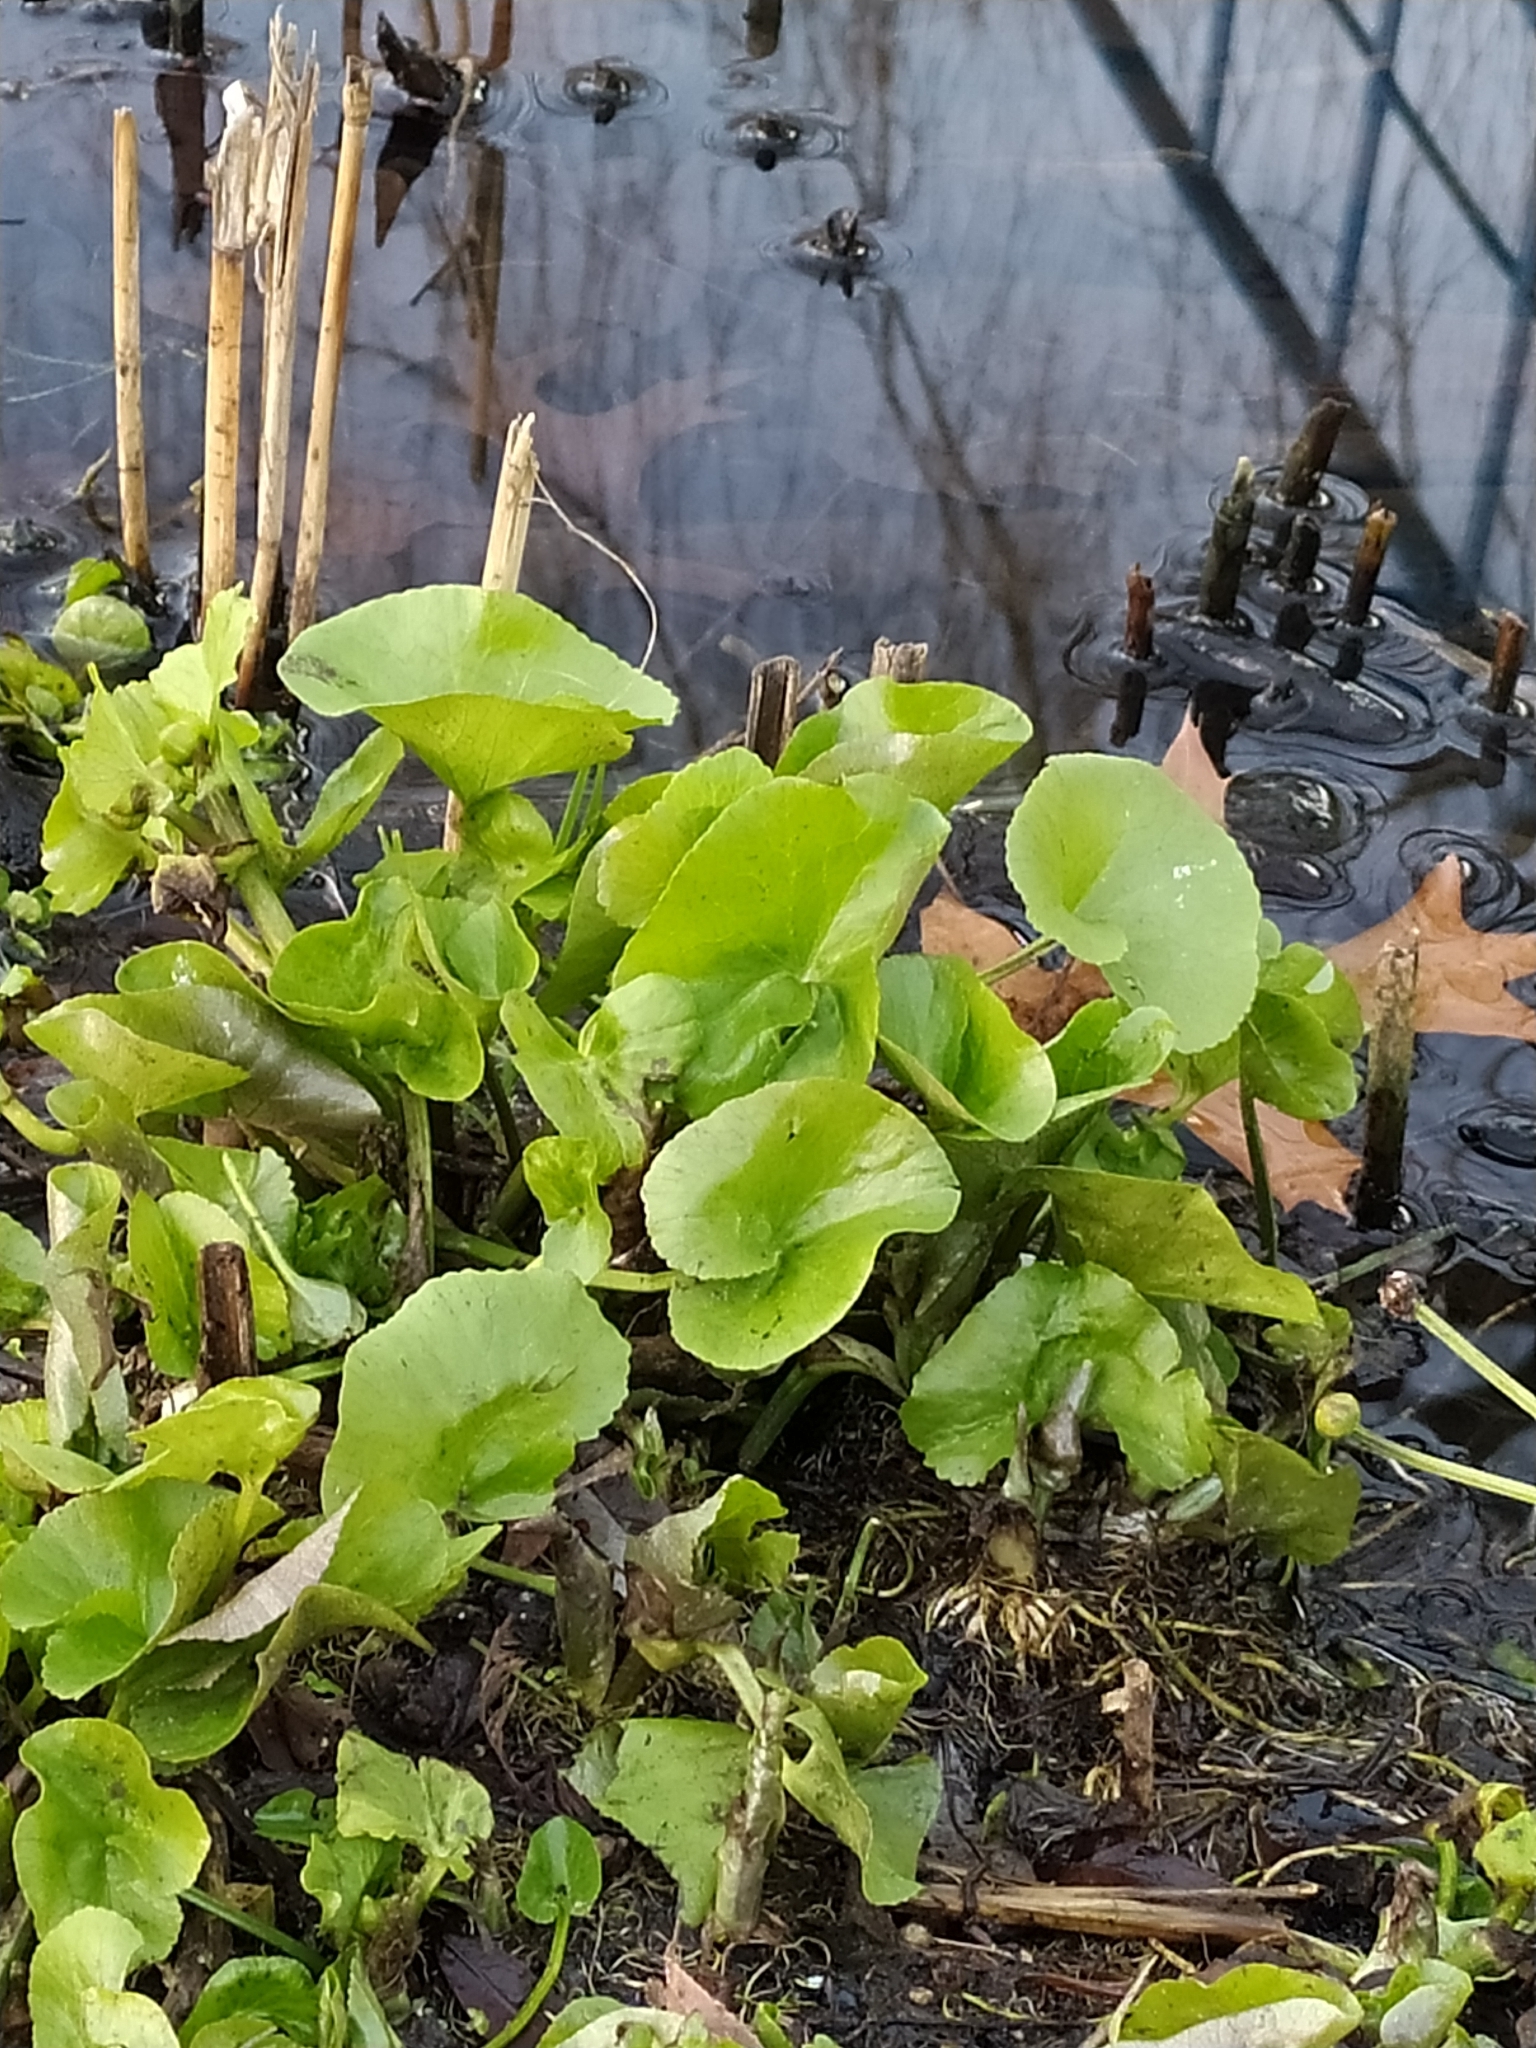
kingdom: Plantae
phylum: Tracheophyta
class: Magnoliopsida
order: Ranunculales
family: Ranunculaceae
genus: Caltha
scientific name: Caltha palustris
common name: Marsh marigold
